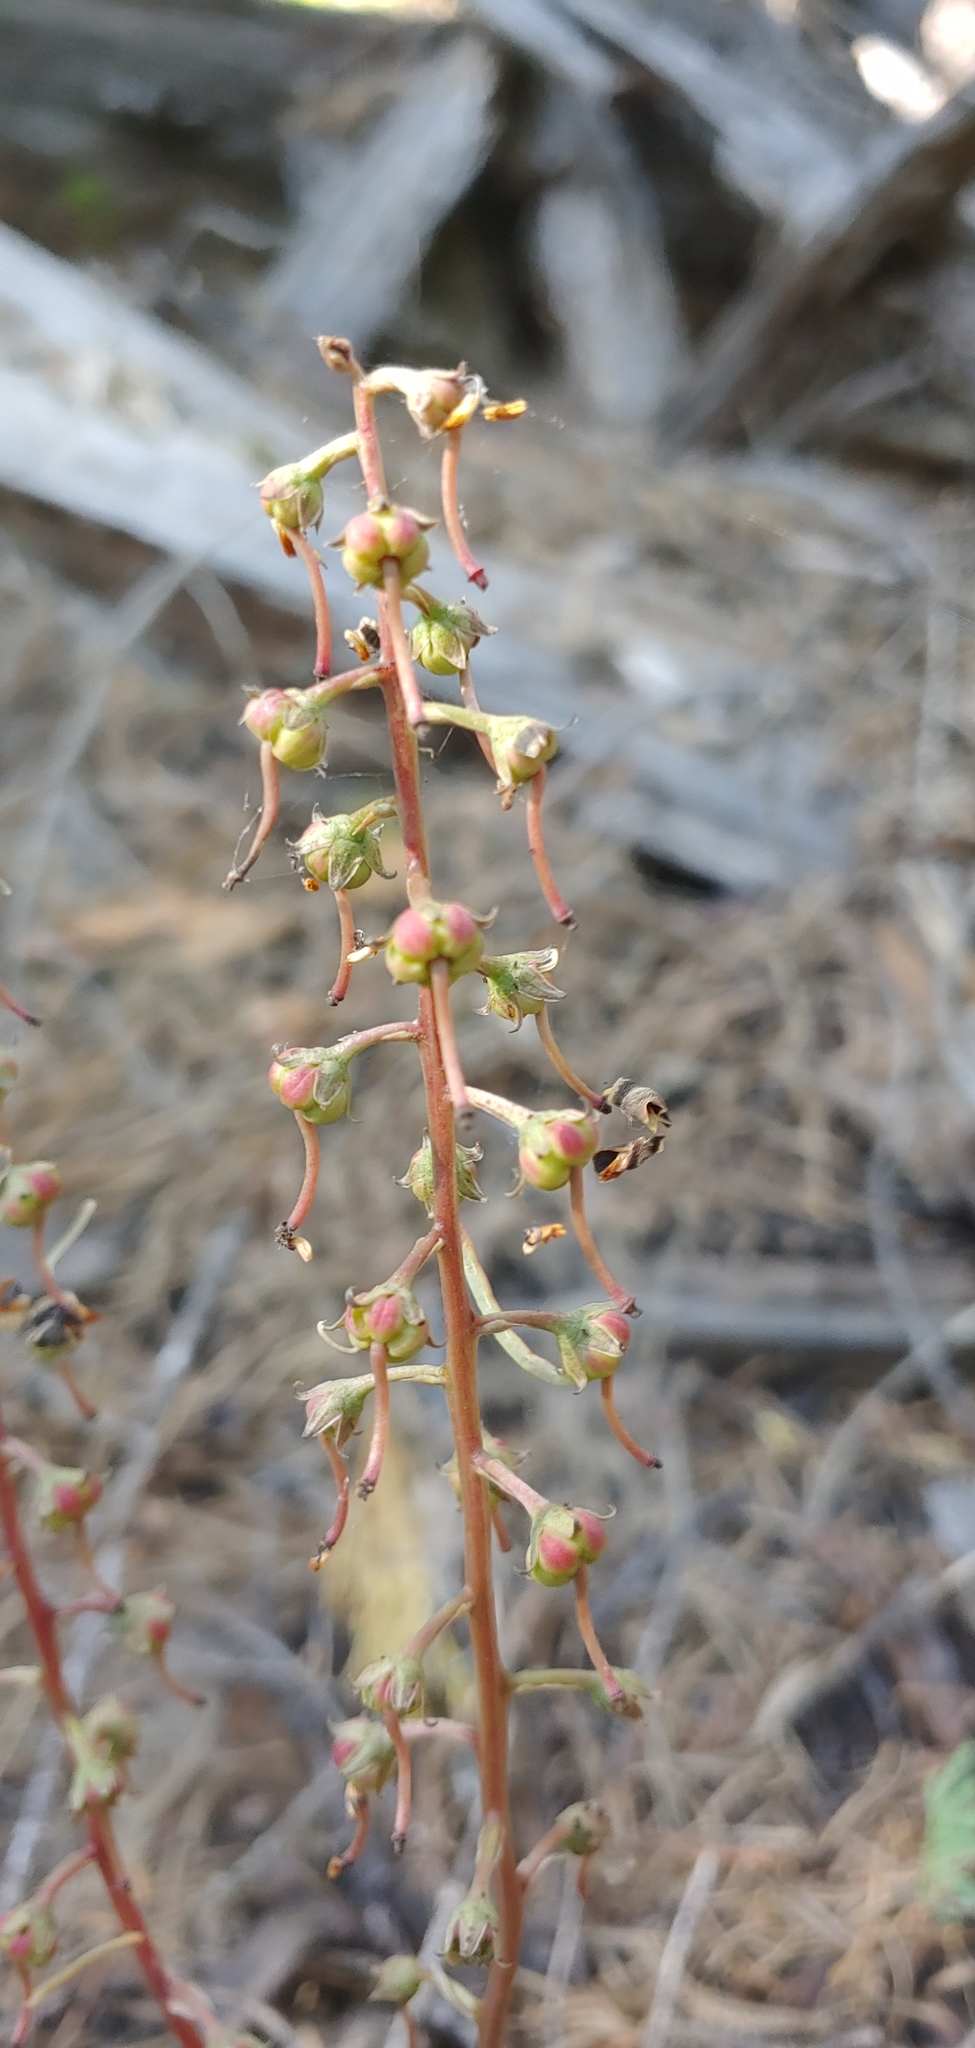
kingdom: Plantae
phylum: Tracheophyta
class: Magnoliopsida
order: Ericales
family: Ericaceae
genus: Pyrola
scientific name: Pyrola picta
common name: White-vein wintergreen
